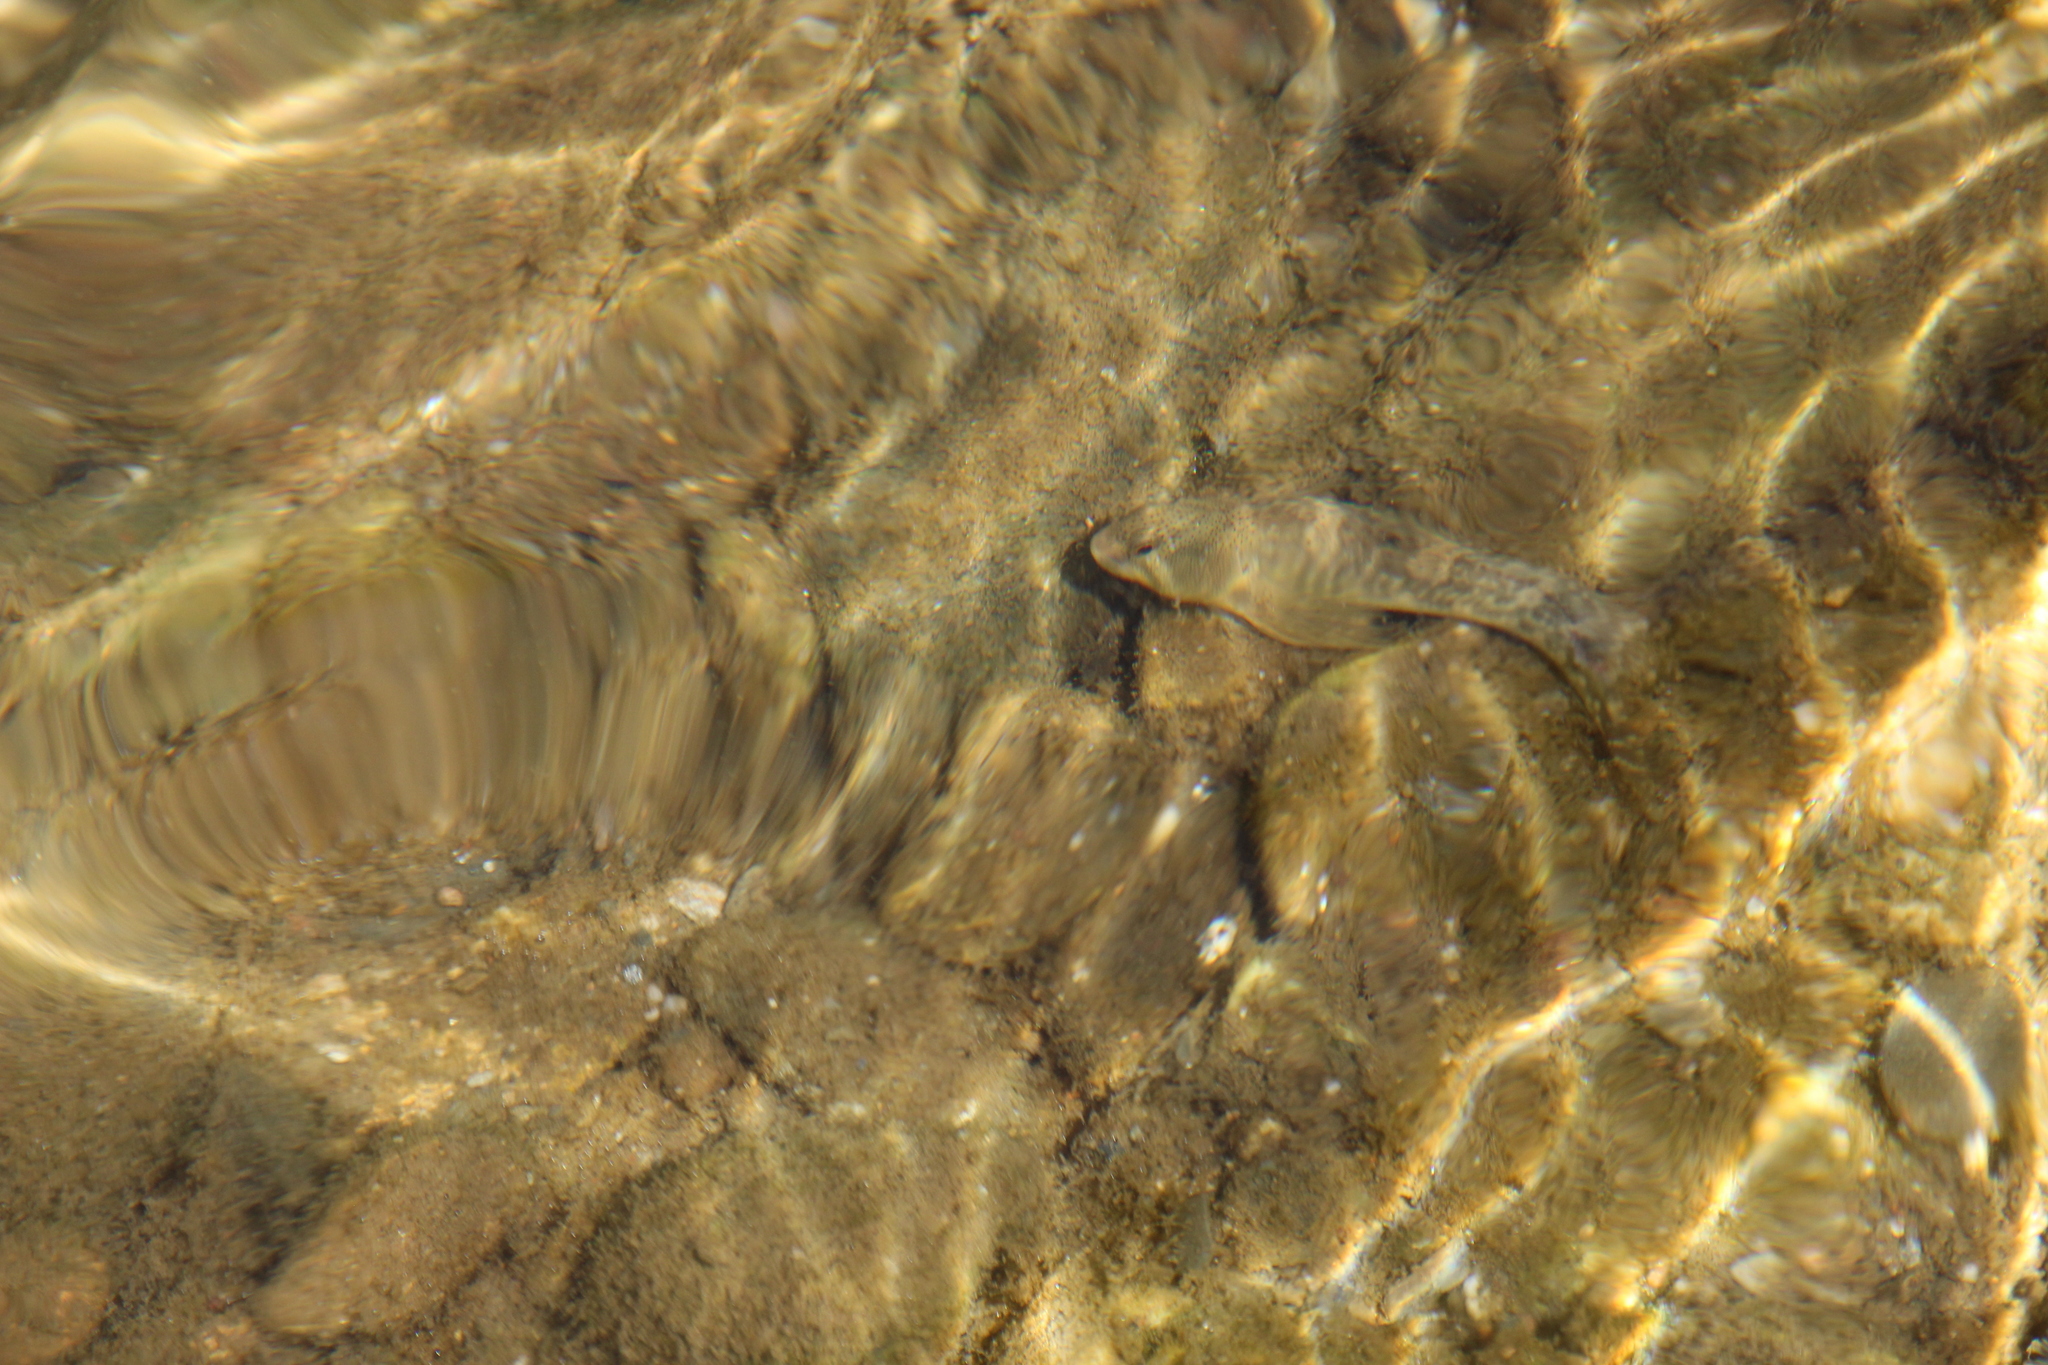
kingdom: Animalia
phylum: Chordata
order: Perciformes
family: Blenniidae
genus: Salaria
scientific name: Salaria fluviatilis
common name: Freshwater blenny
